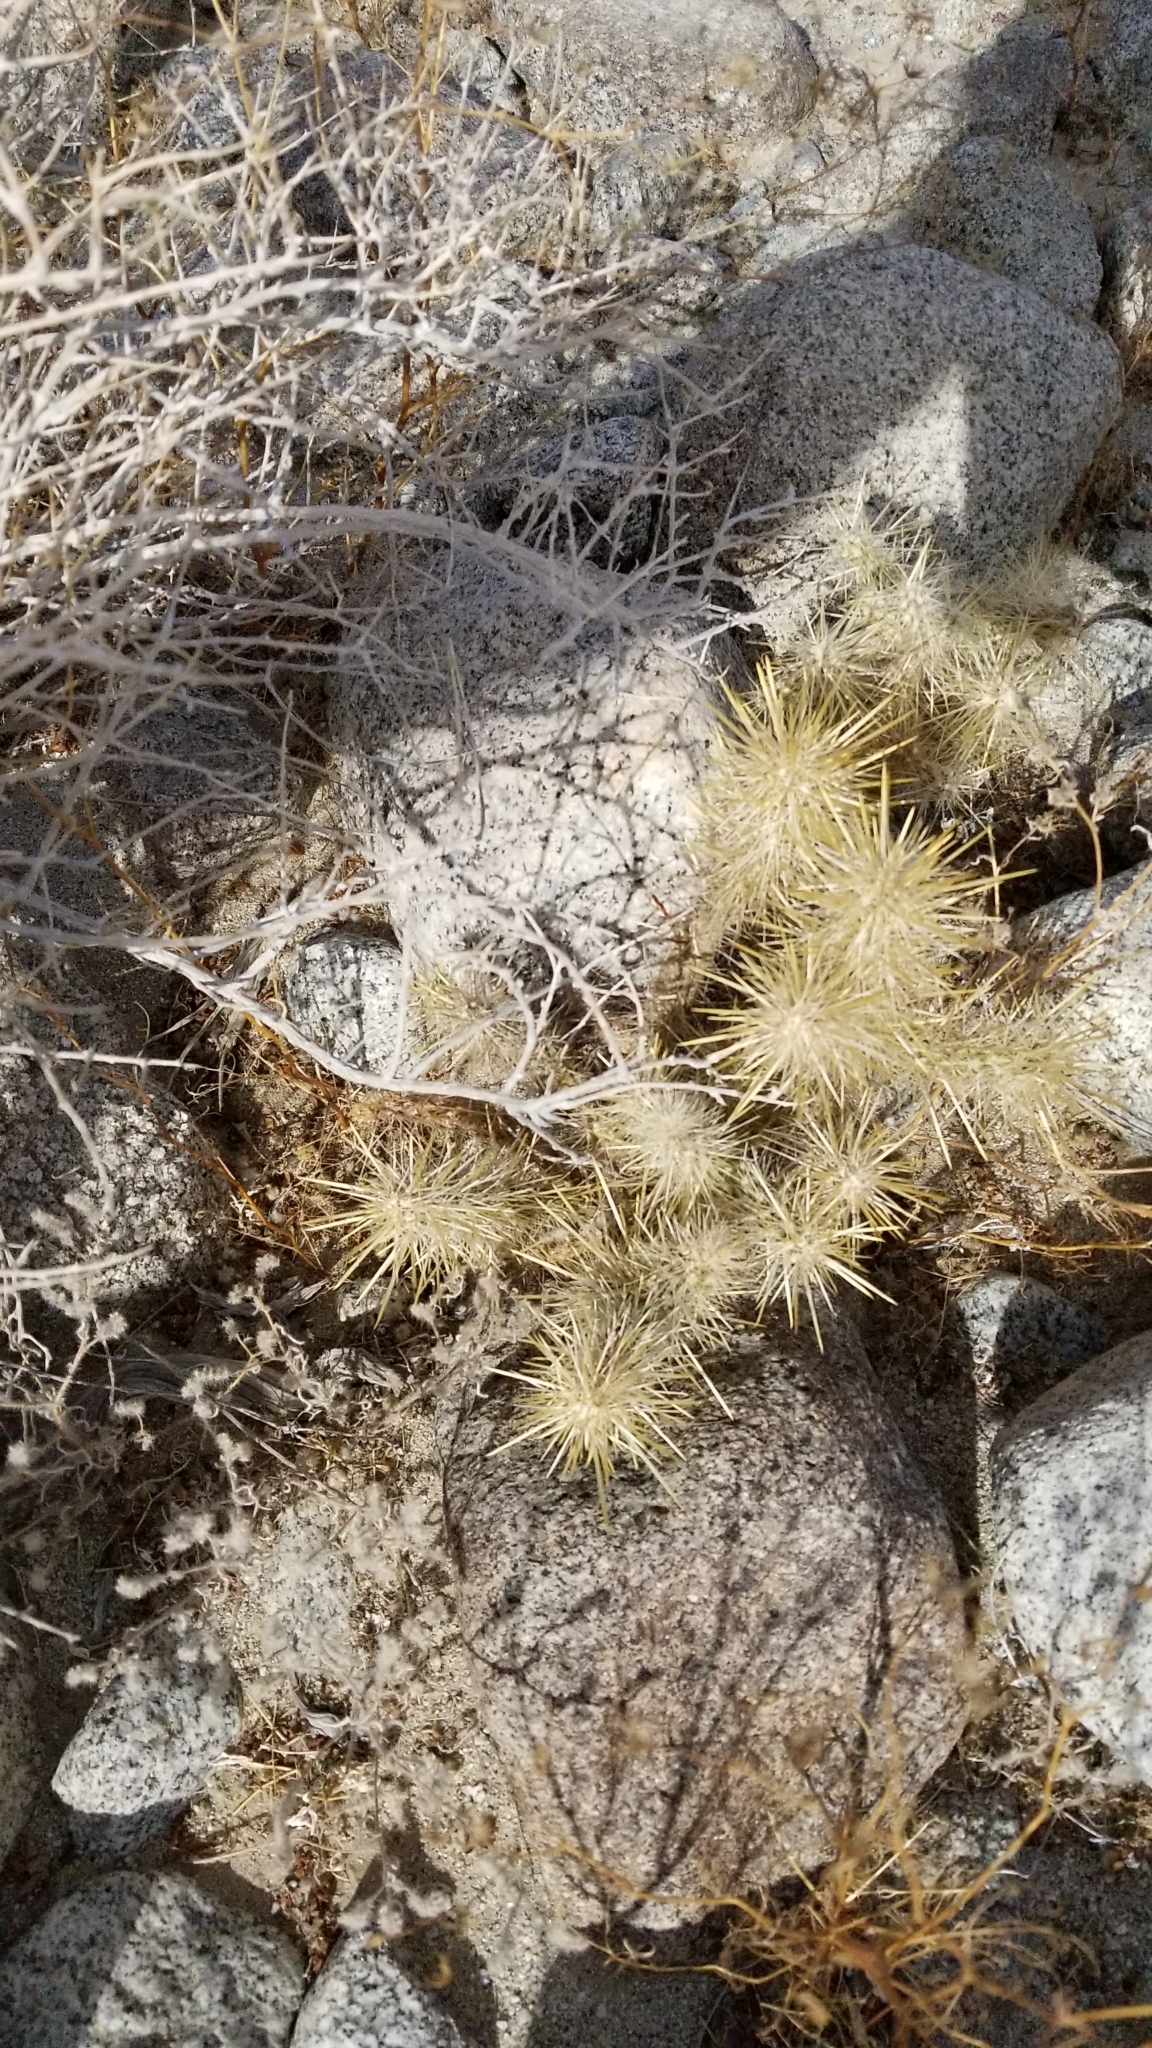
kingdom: Plantae
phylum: Tracheophyta
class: Magnoliopsida
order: Caryophyllales
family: Cactaceae
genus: Cylindropuntia
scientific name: Cylindropuntia echinocarpa
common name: Ground cholla
